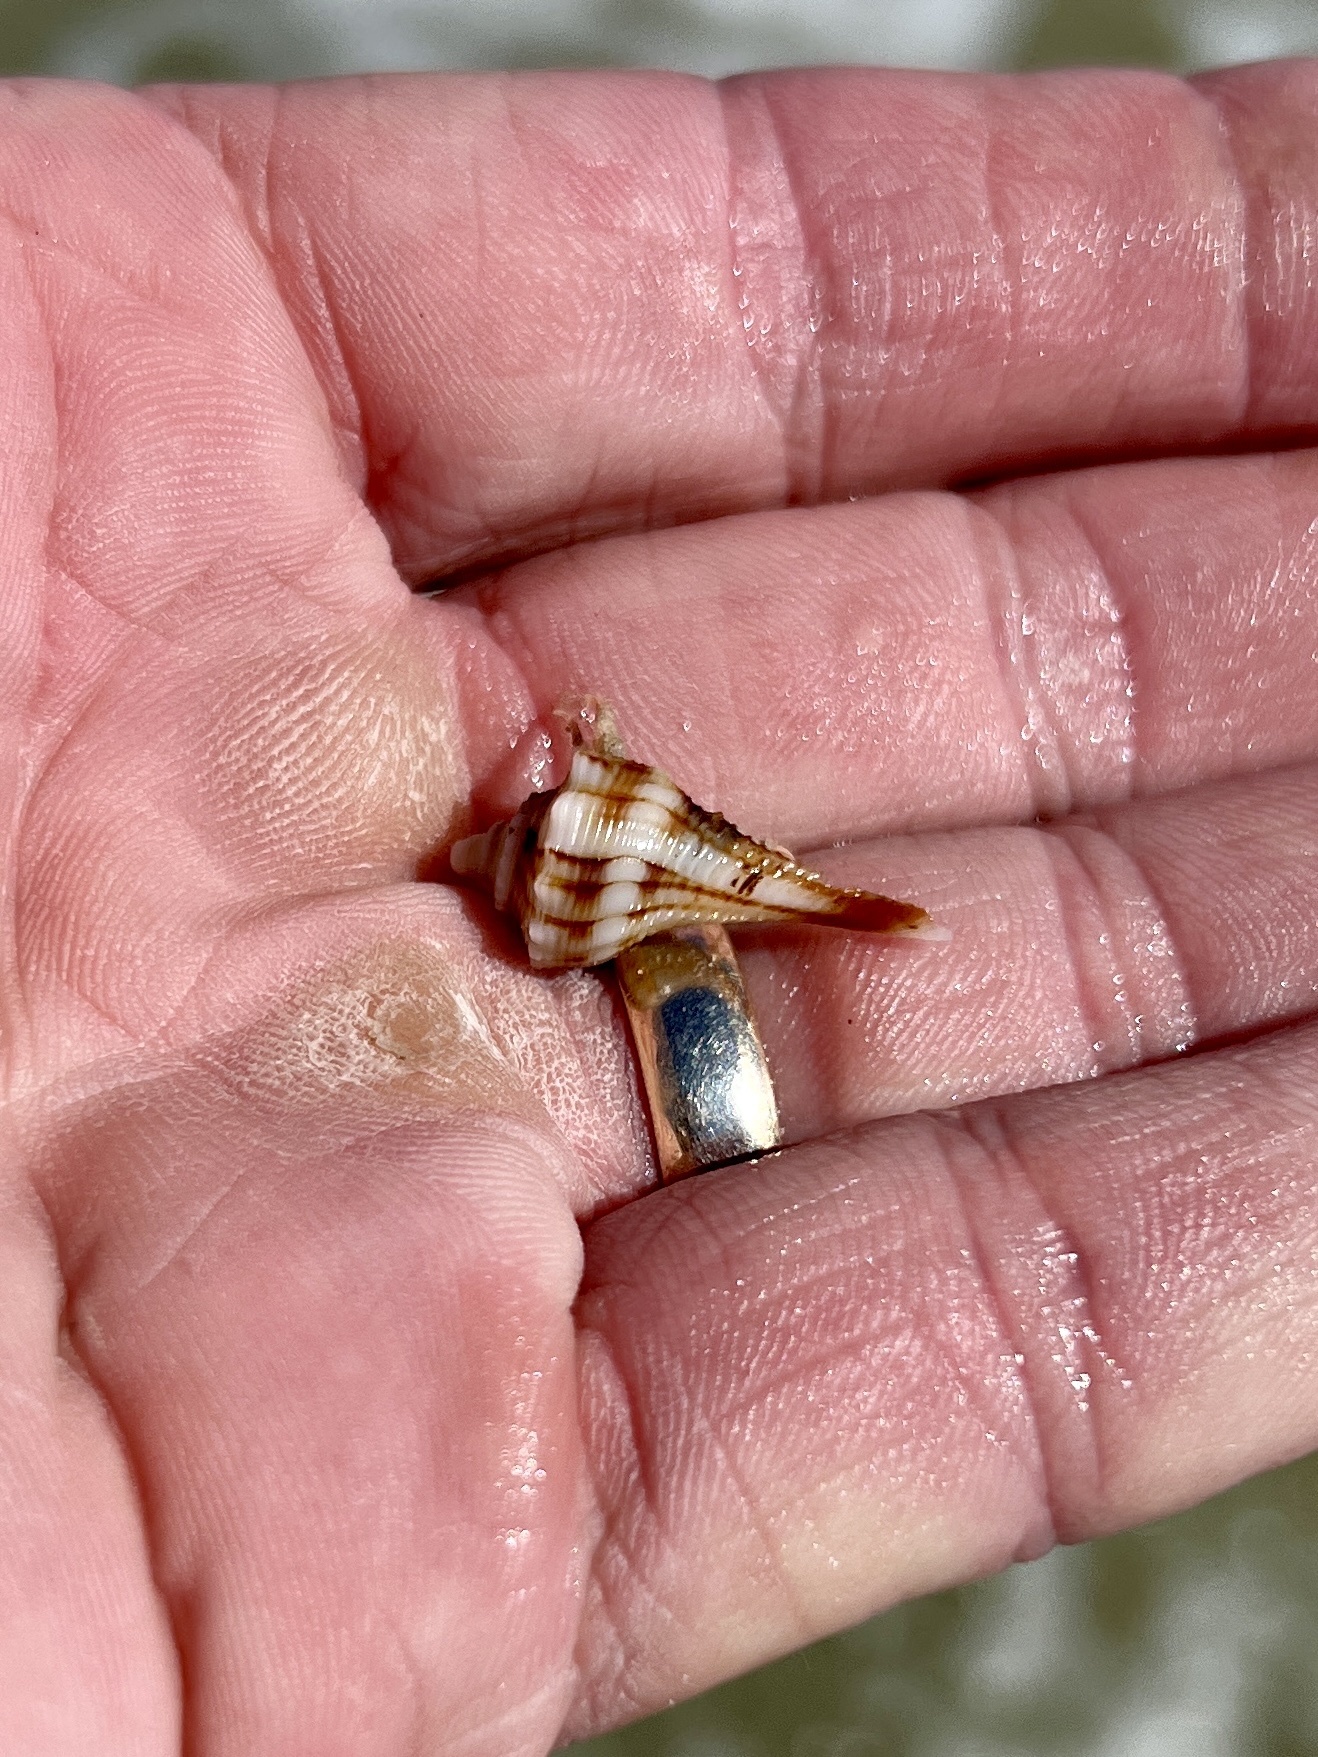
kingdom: Animalia
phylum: Mollusca
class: Gastropoda
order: Neogastropoda
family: Busyconidae
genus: Sinistrofulgur
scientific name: Sinistrofulgur pulleyi
